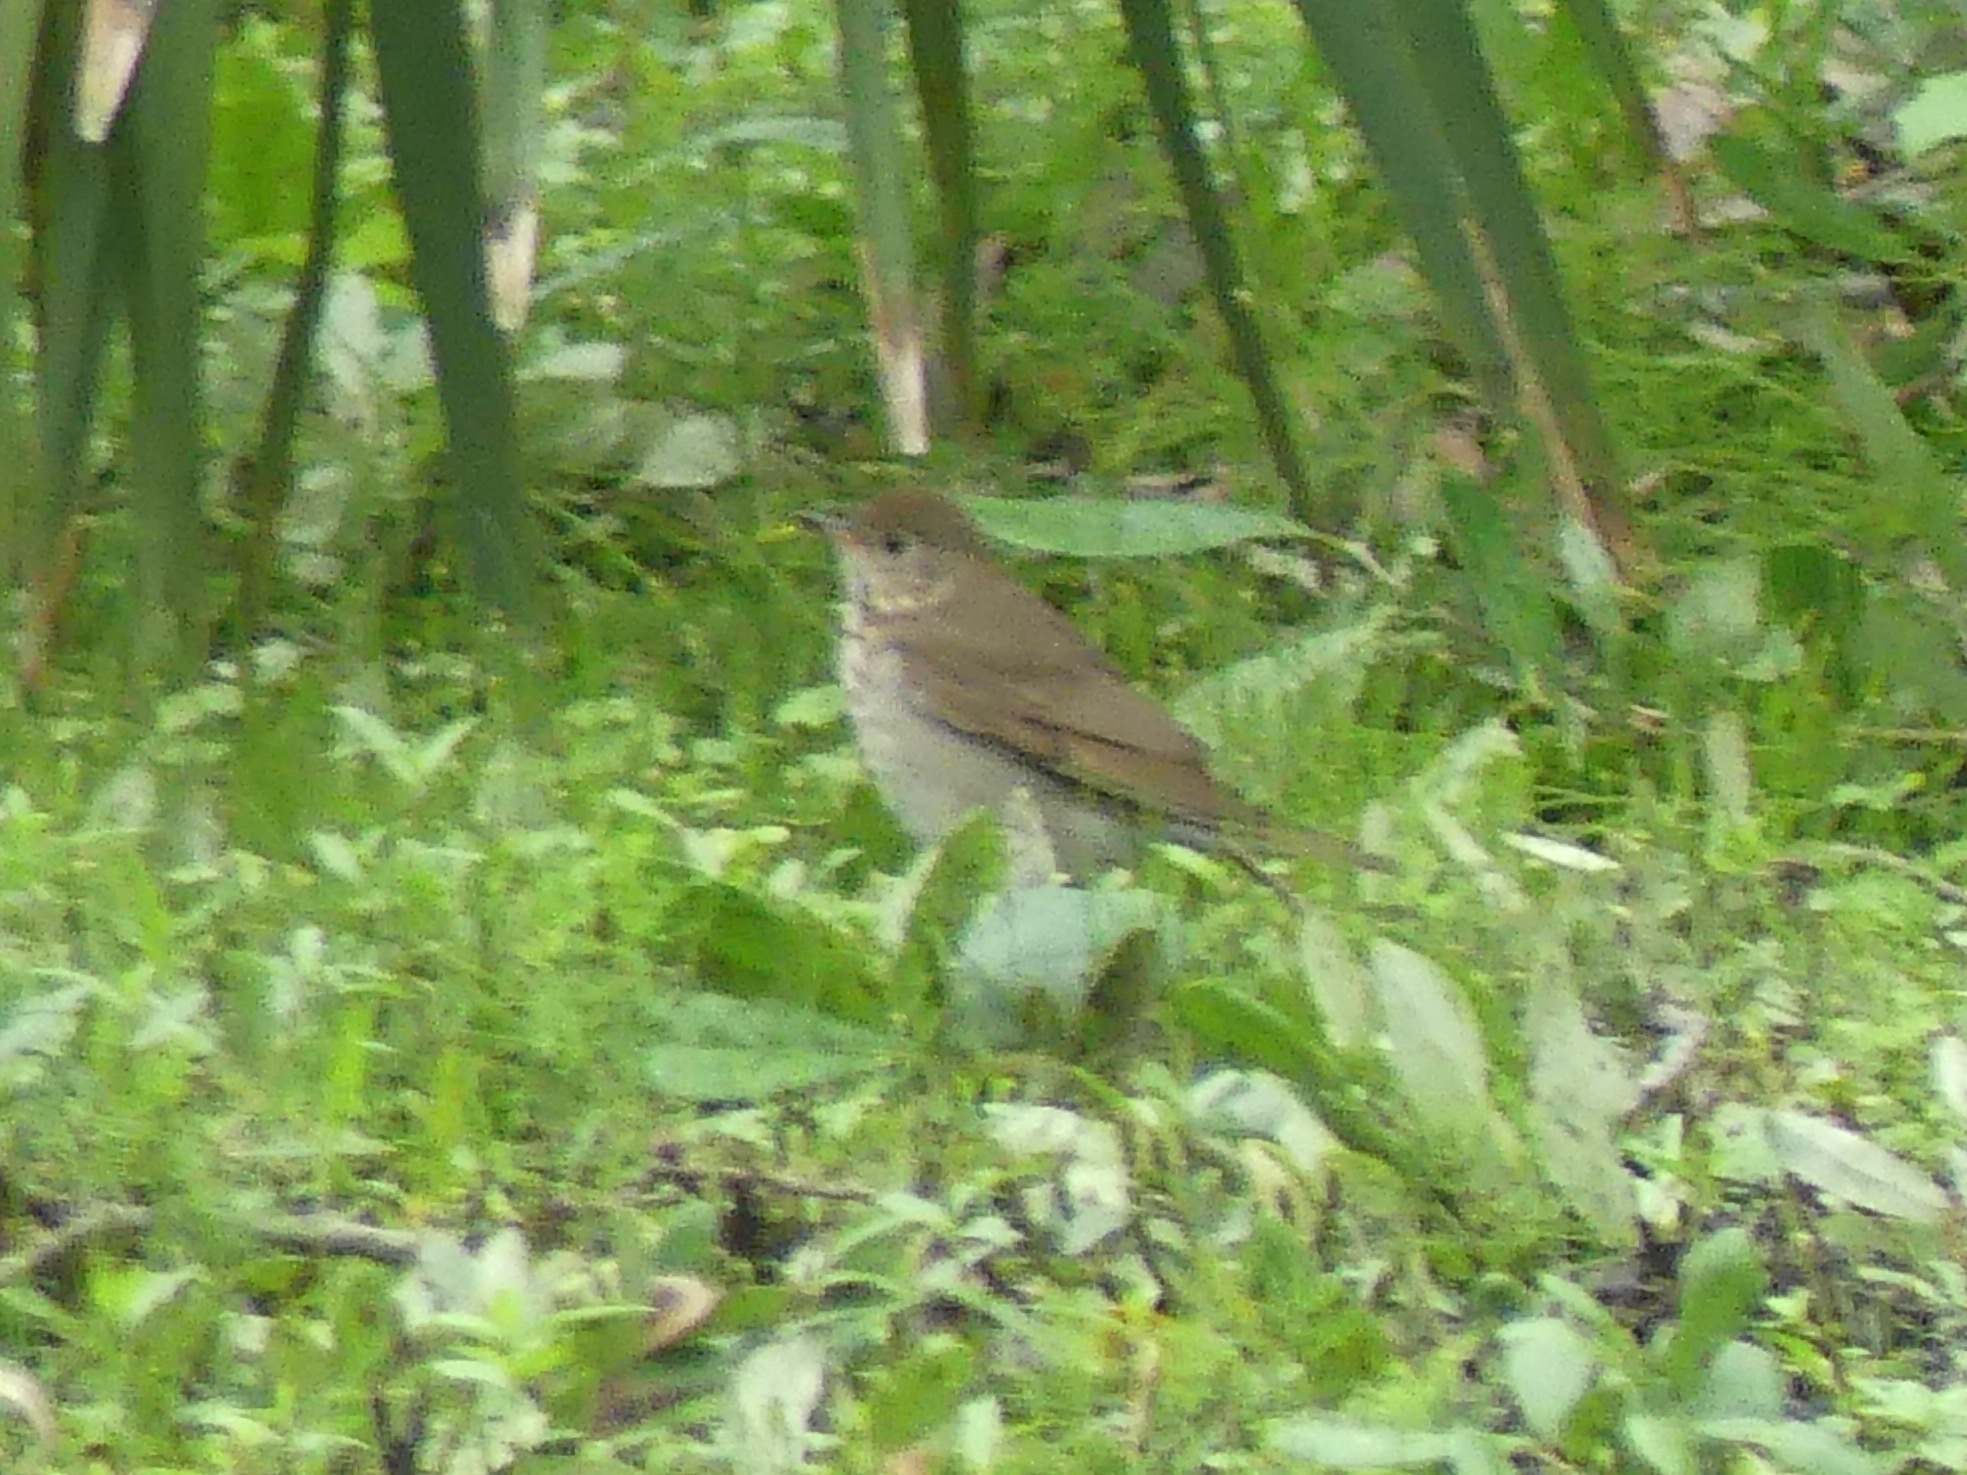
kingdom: Animalia
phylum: Chordata
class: Aves
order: Passeriformes
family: Turdidae
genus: Catharus
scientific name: Catharus minimus
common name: Grey-cheeked thrush
